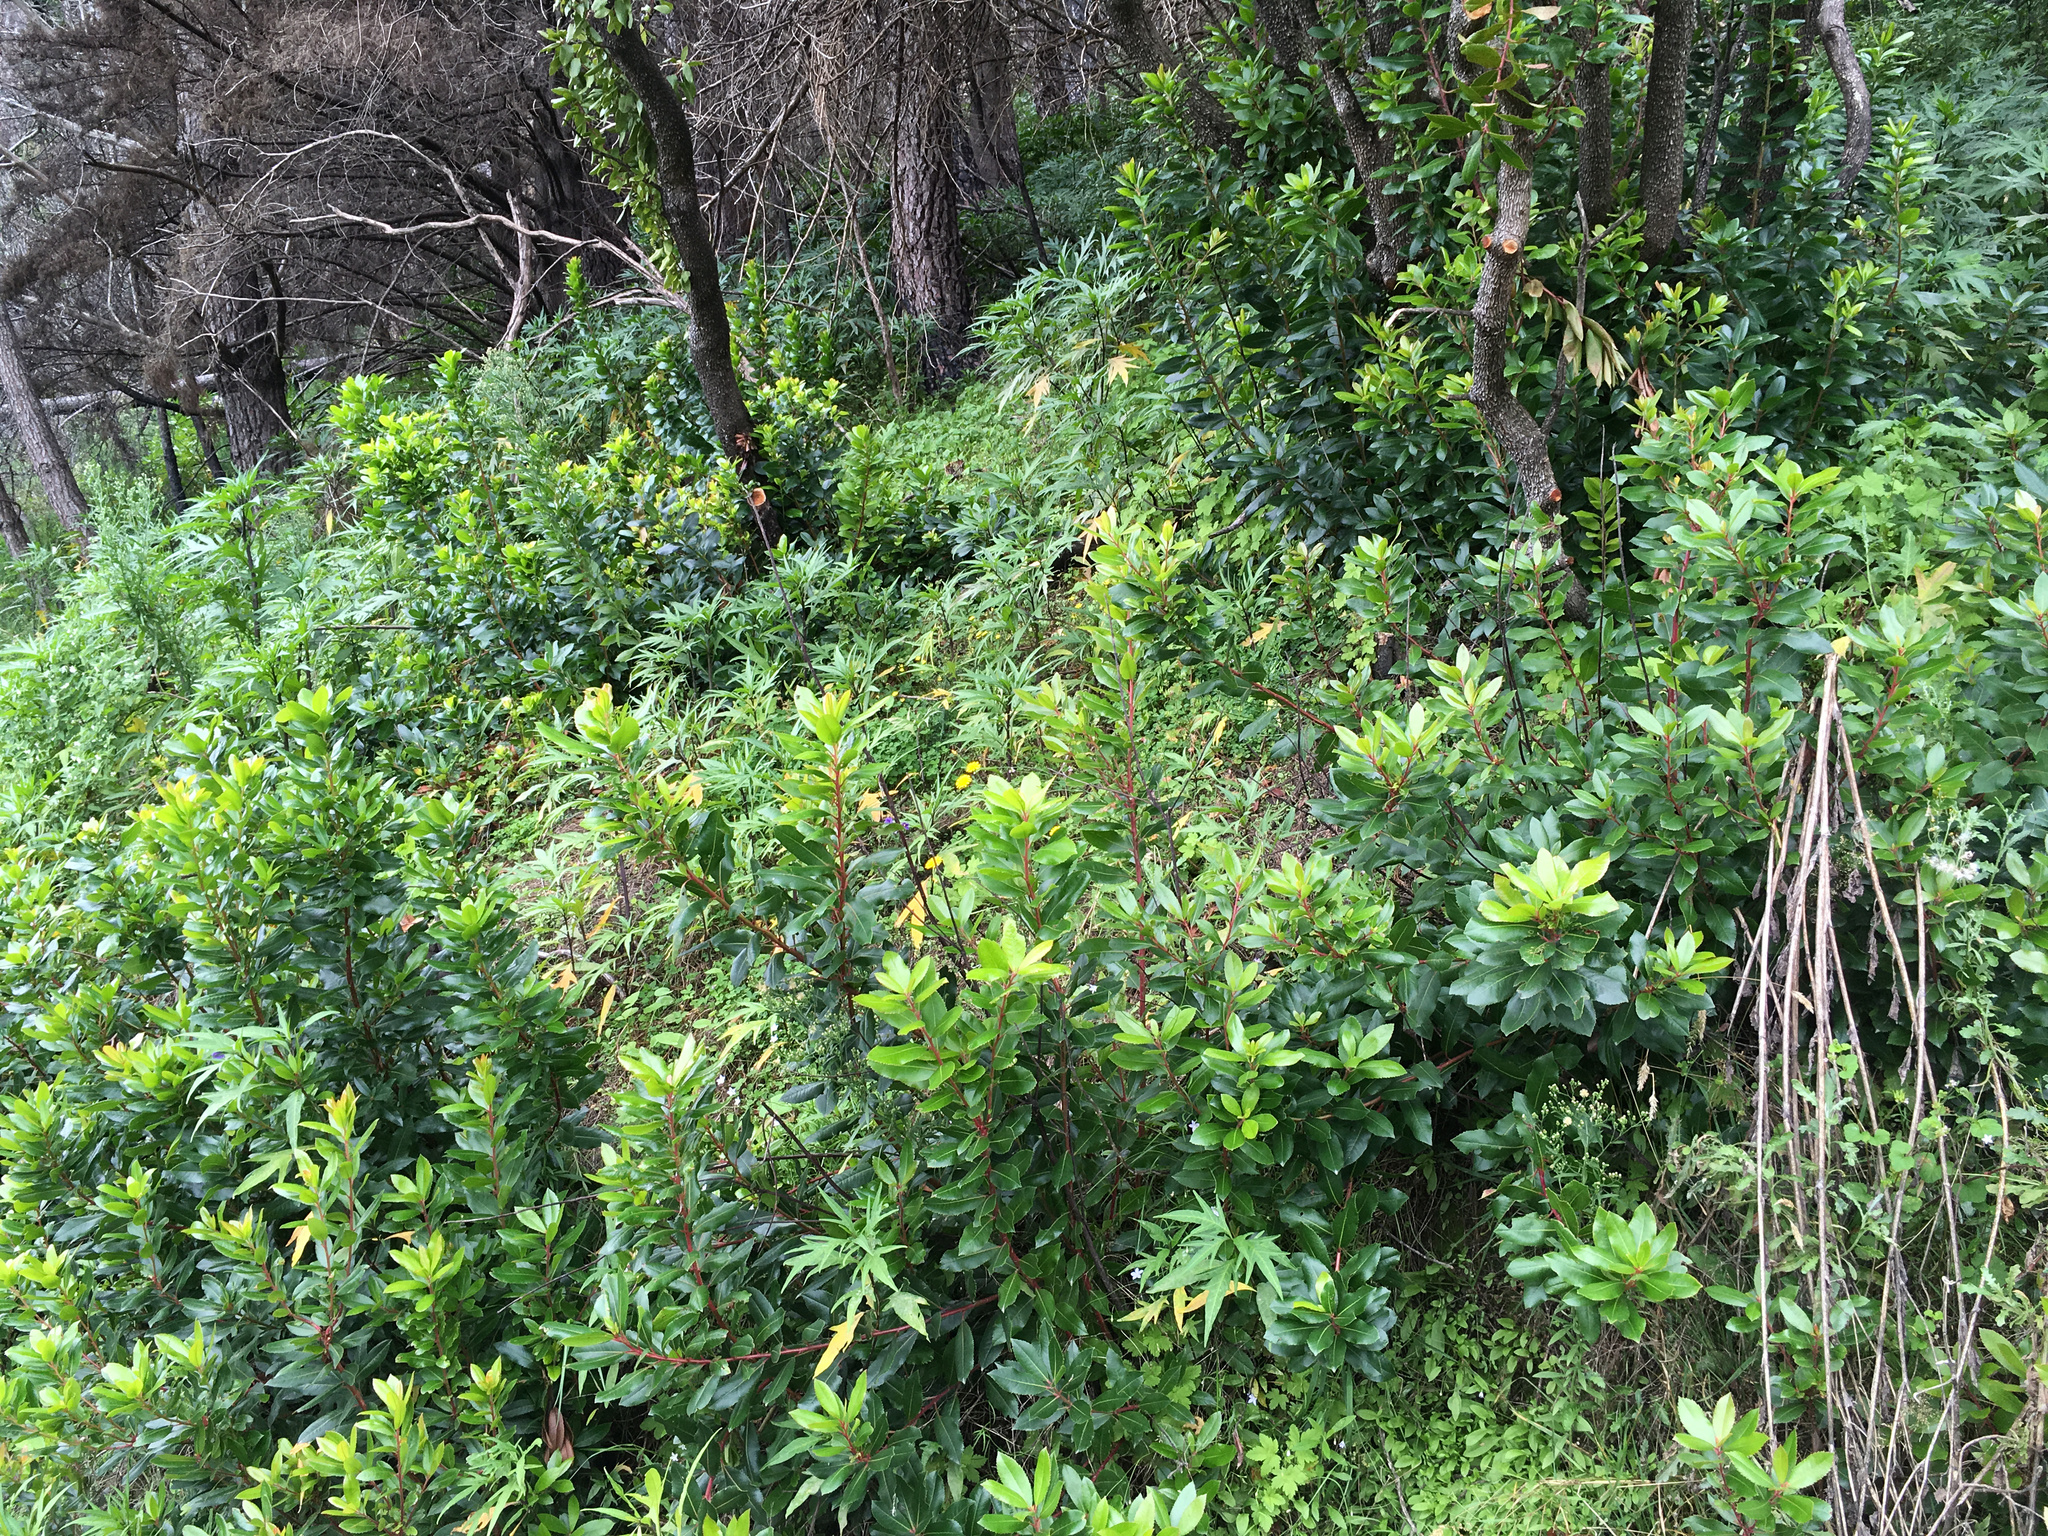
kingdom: Plantae
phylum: Tracheophyta
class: Magnoliopsida
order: Ericales
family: Ericaceae
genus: Arbutus
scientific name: Arbutus unedo
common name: Strawberry-tree
